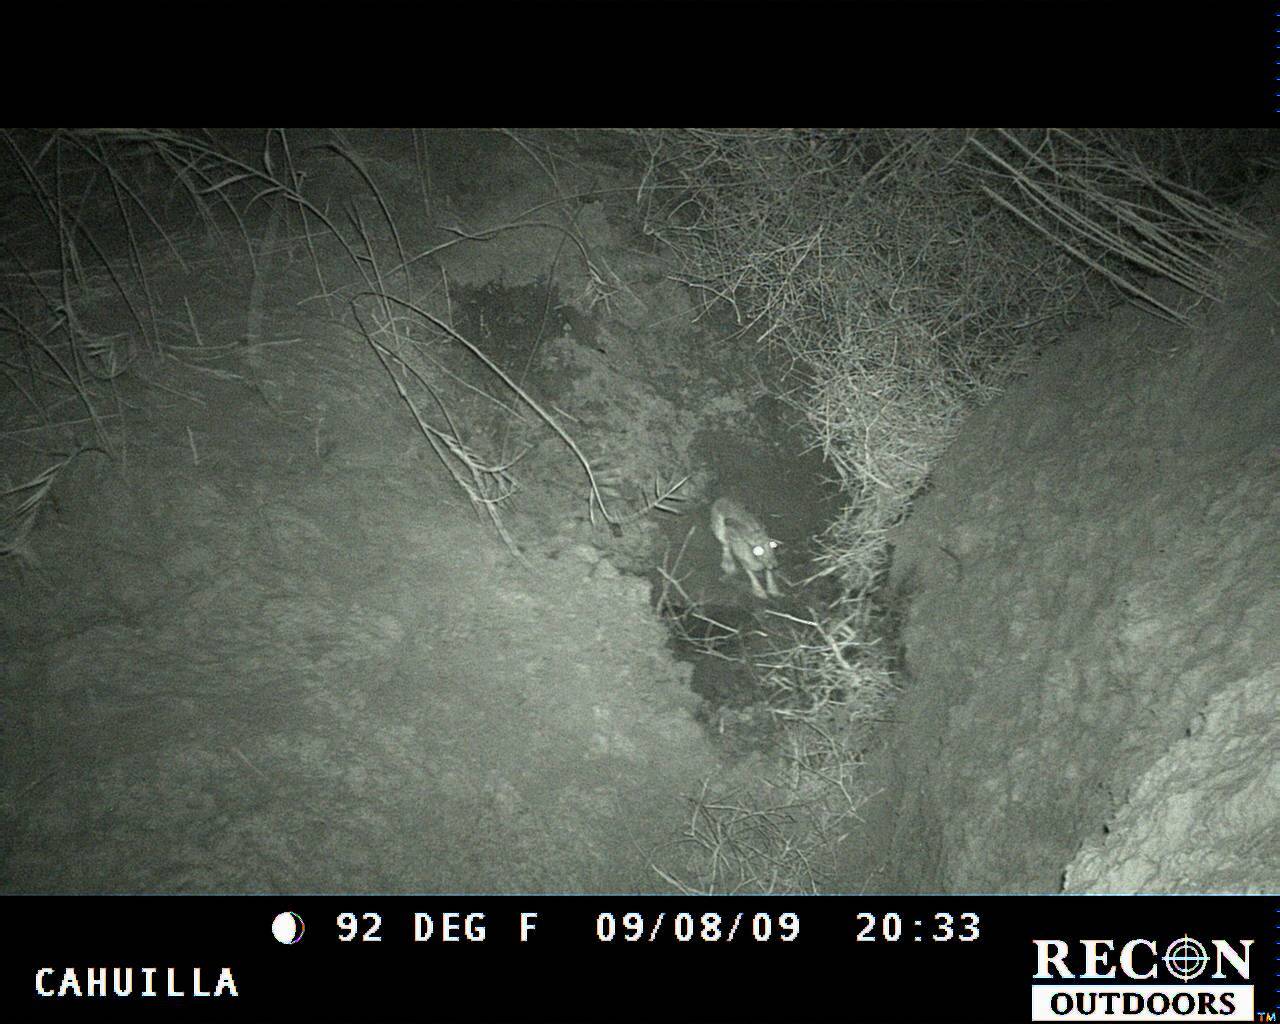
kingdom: Animalia
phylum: Chordata
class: Mammalia
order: Lagomorpha
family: Leporidae
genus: Lepus
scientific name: Lepus californicus
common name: Black-tailed jackrabbit
